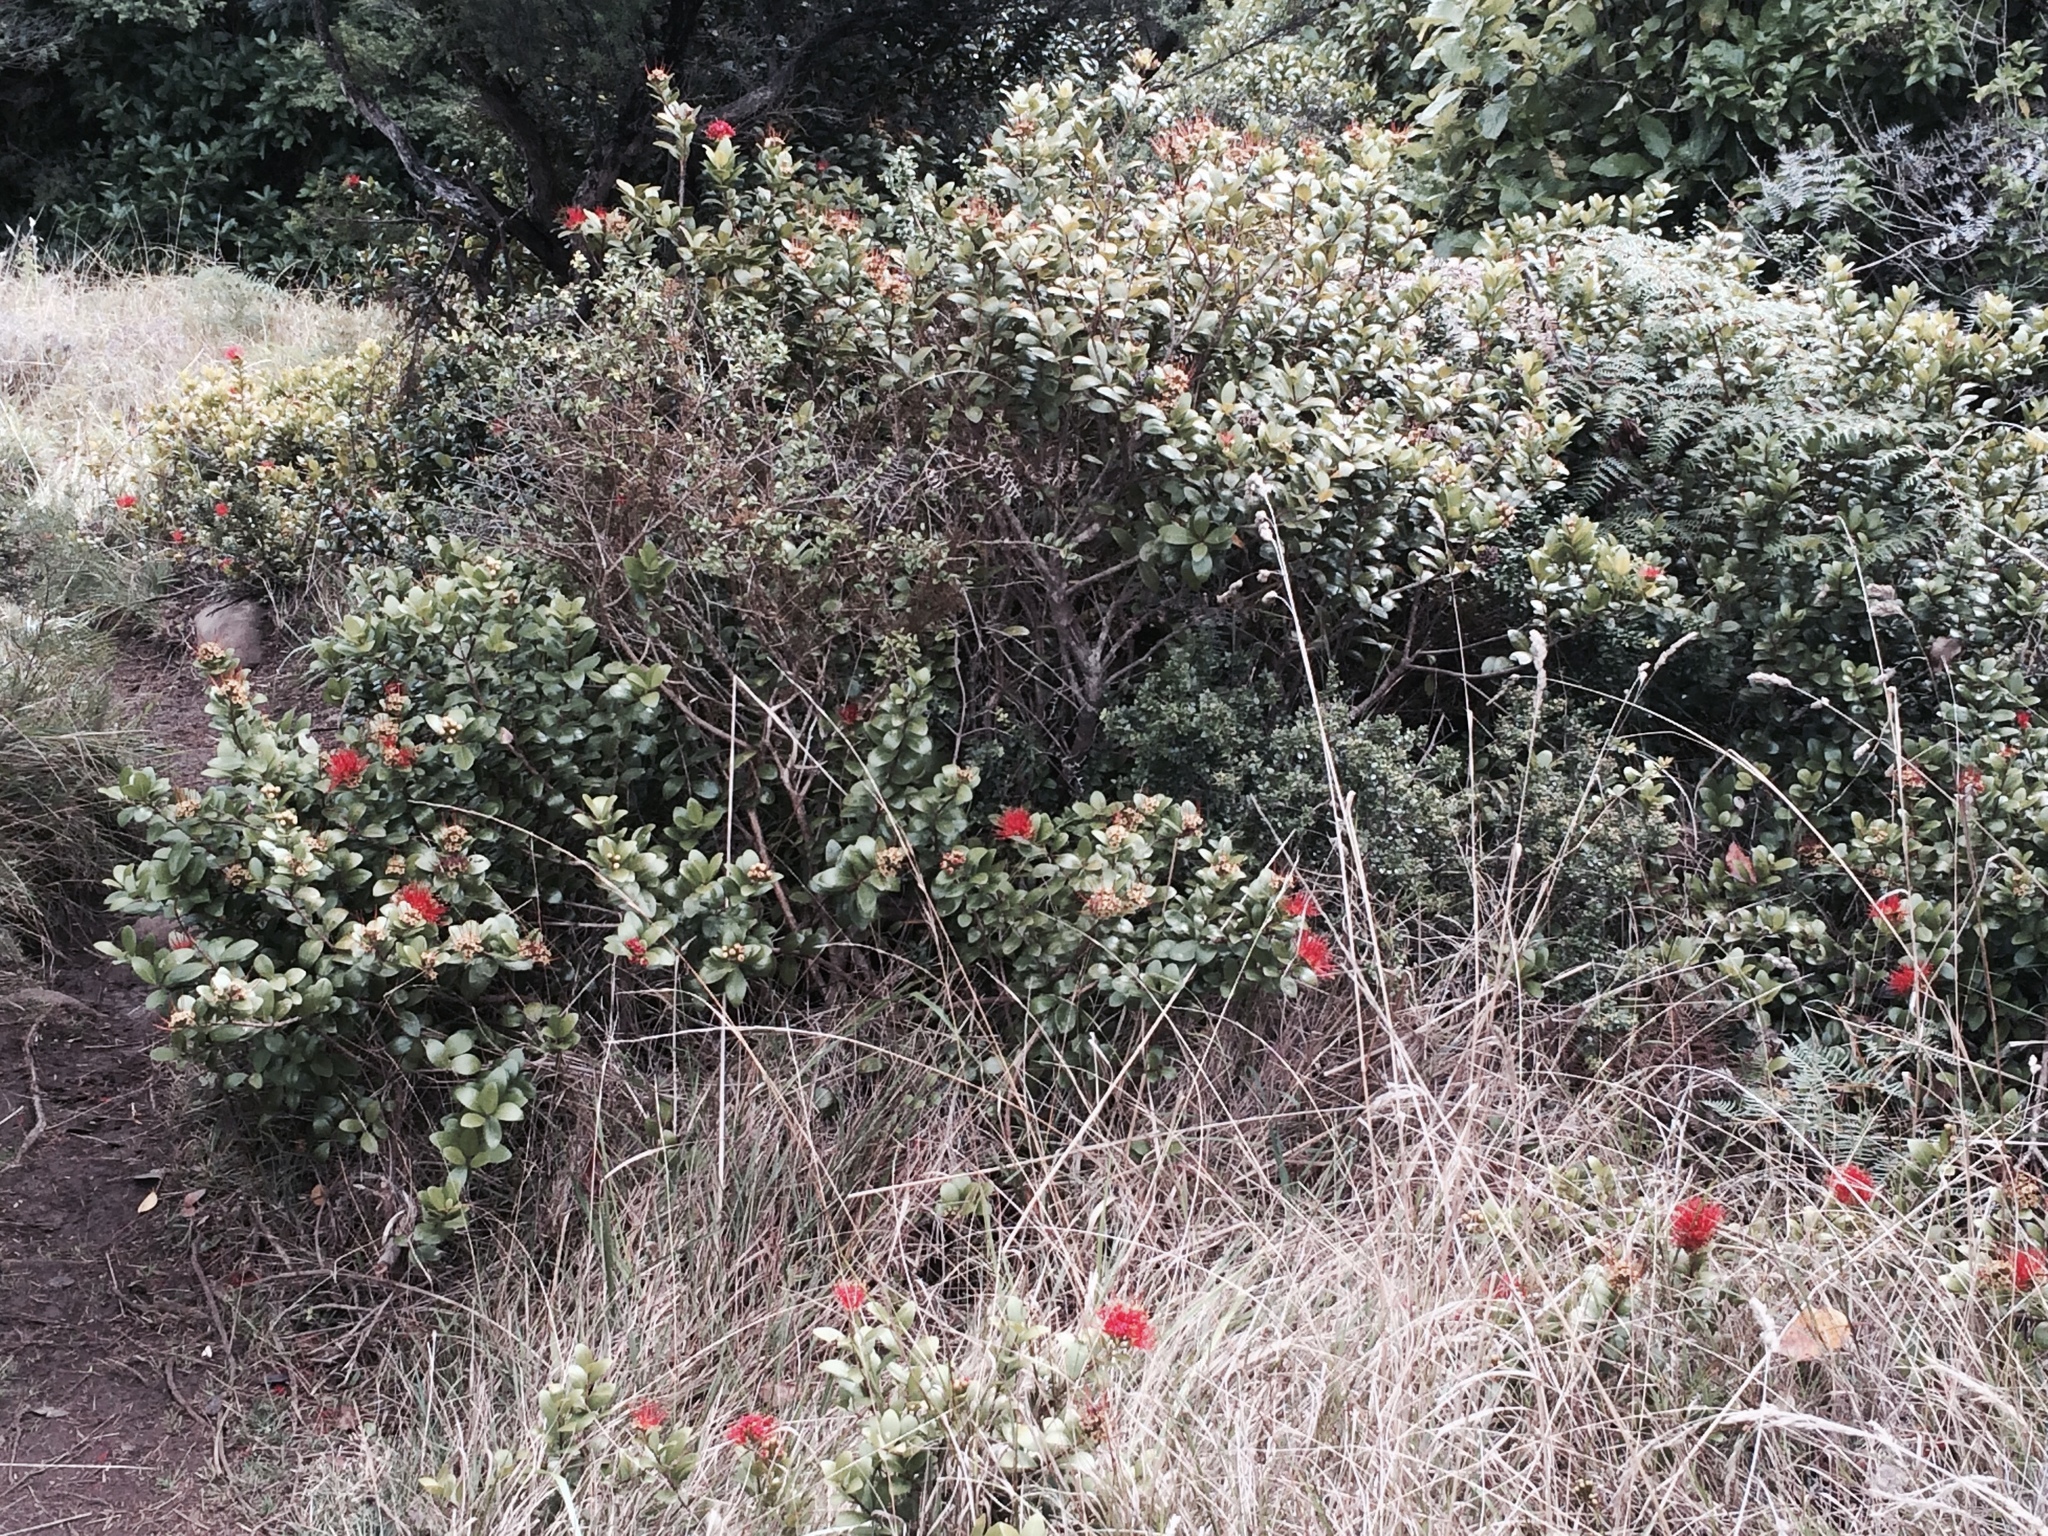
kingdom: Plantae
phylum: Tracheophyta
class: Magnoliopsida
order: Myrtales
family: Myrtaceae
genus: Metrosideros
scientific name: Metrosideros fulgens
